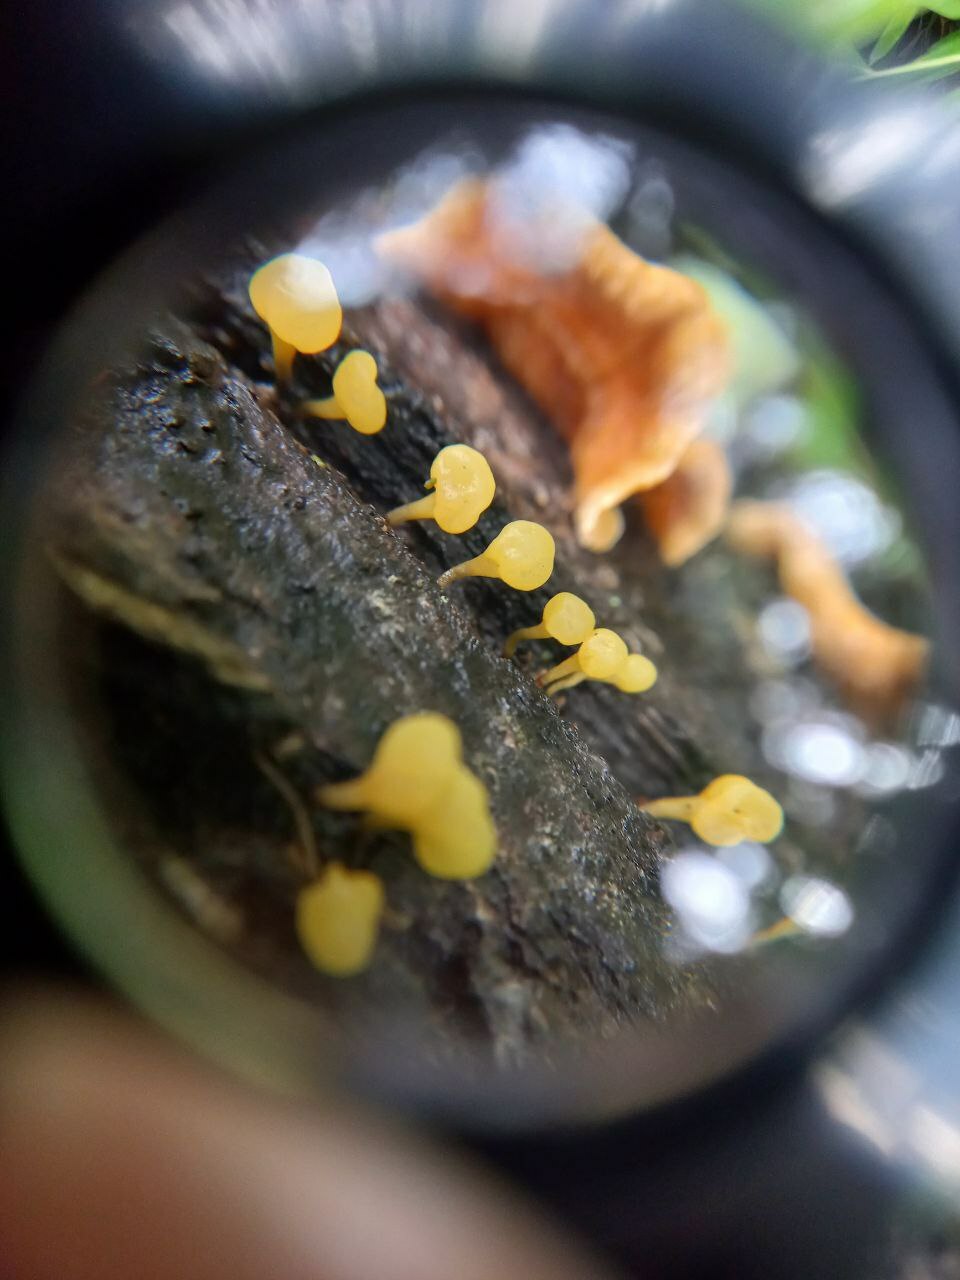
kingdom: Fungi
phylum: Basidiomycota
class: Dacrymycetes
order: Dacrymycetales
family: Dacrymycetaceae
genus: Guepiniopsis
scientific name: Guepiniopsis alpina
